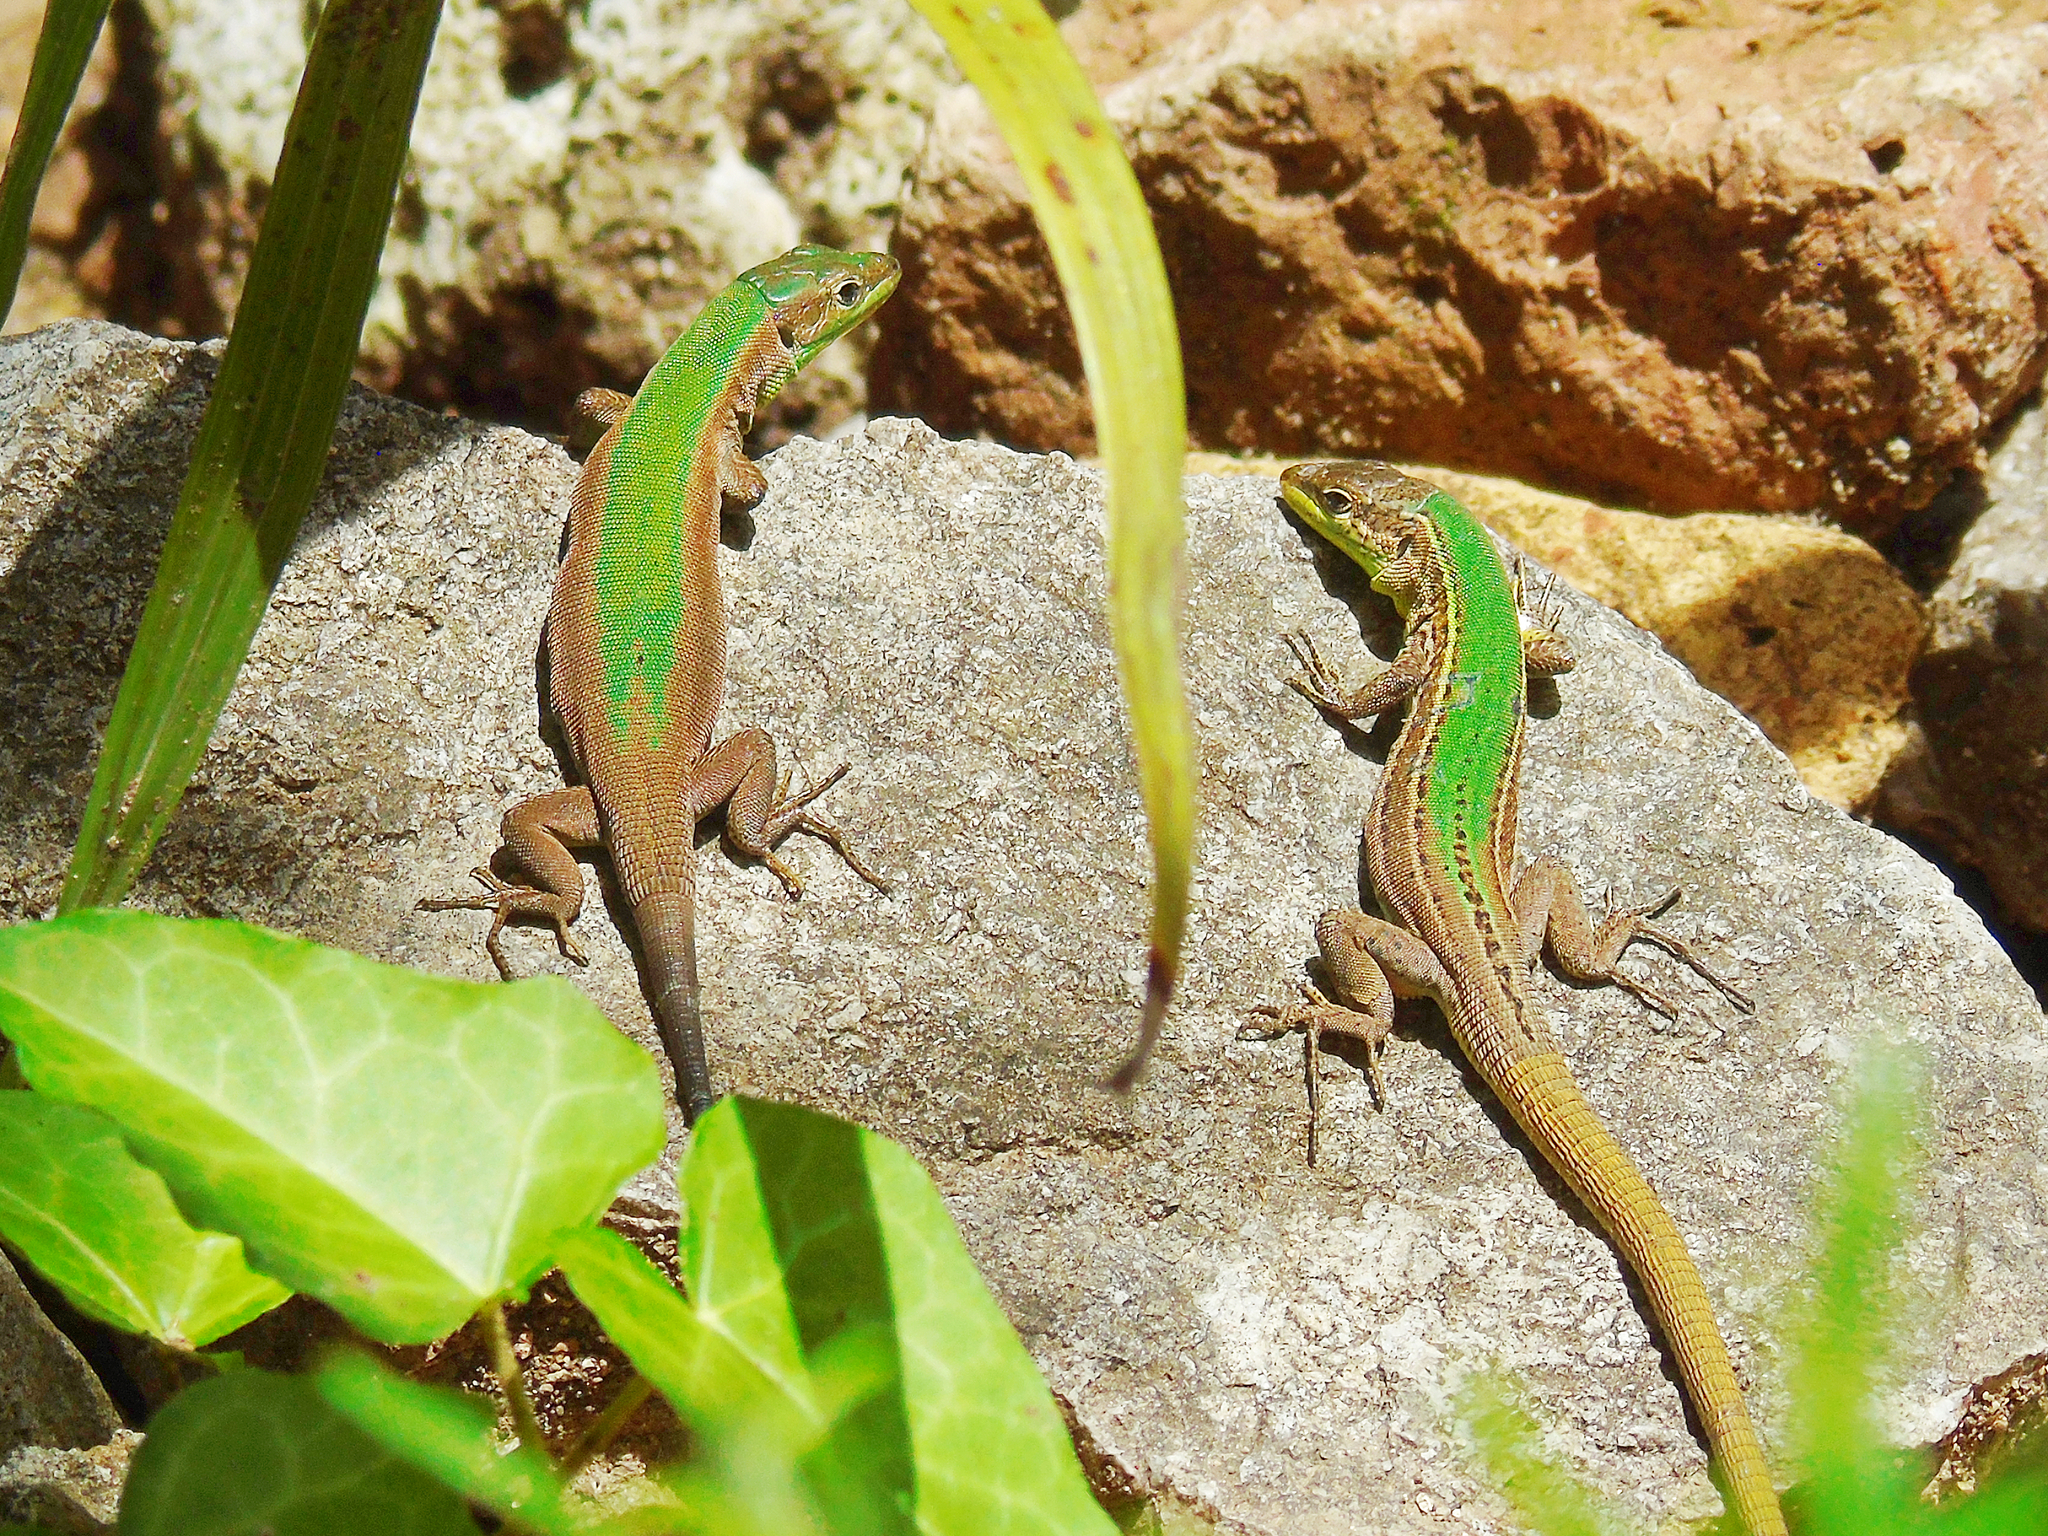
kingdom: Animalia
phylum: Chordata
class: Squamata
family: Lacertidae
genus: Podarcis
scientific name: Podarcis melisellensis
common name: Dalmatian wall lizard
